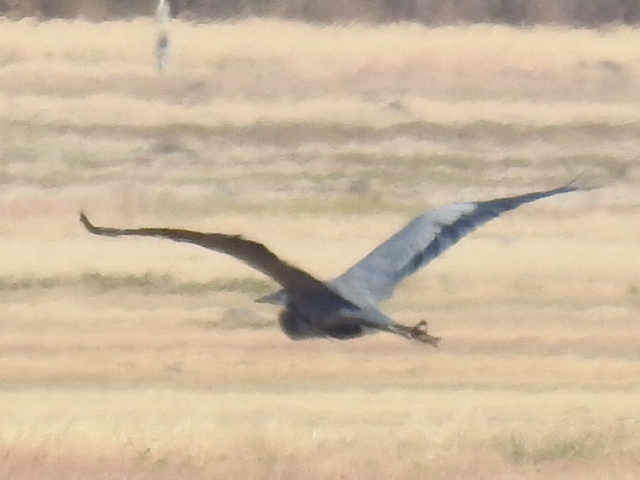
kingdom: Animalia
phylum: Chordata
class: Aves
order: Pelecaniformes
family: Ardeidae
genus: Ardea
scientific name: Ardea herodias
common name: Great blue heron
